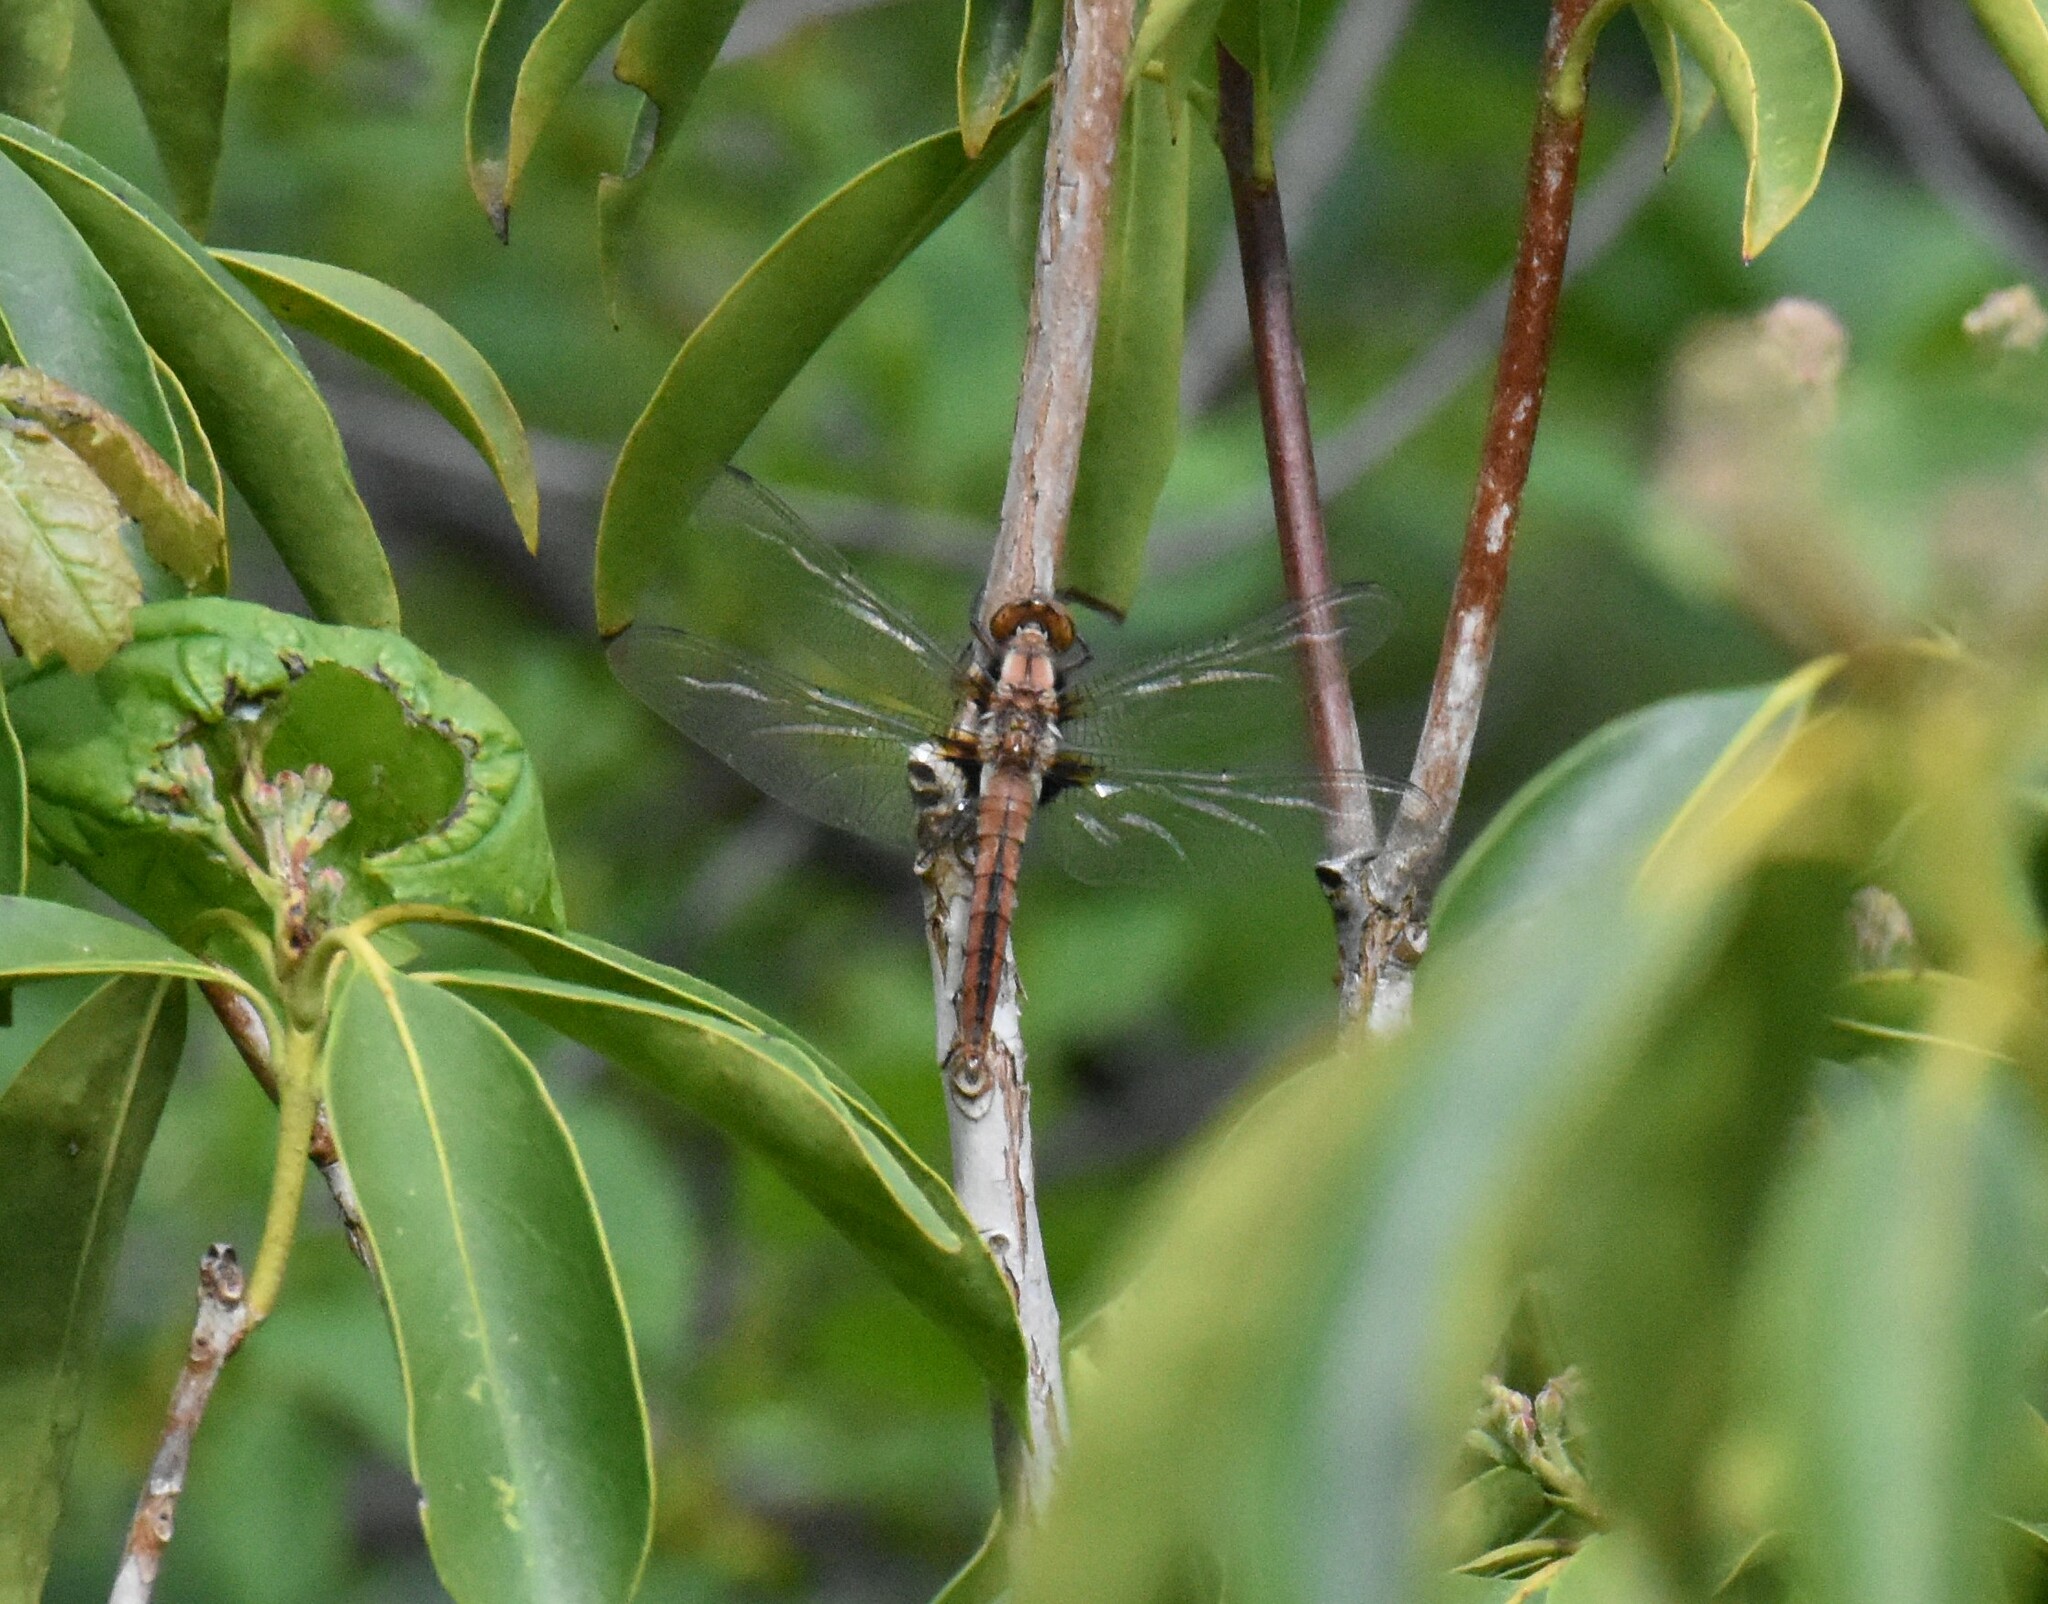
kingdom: Animalia
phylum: Arthropoda
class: Insecta
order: Odonata
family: Libellulidae
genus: Ladona
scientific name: Ladona julia
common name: Chalk-fronted corporal
